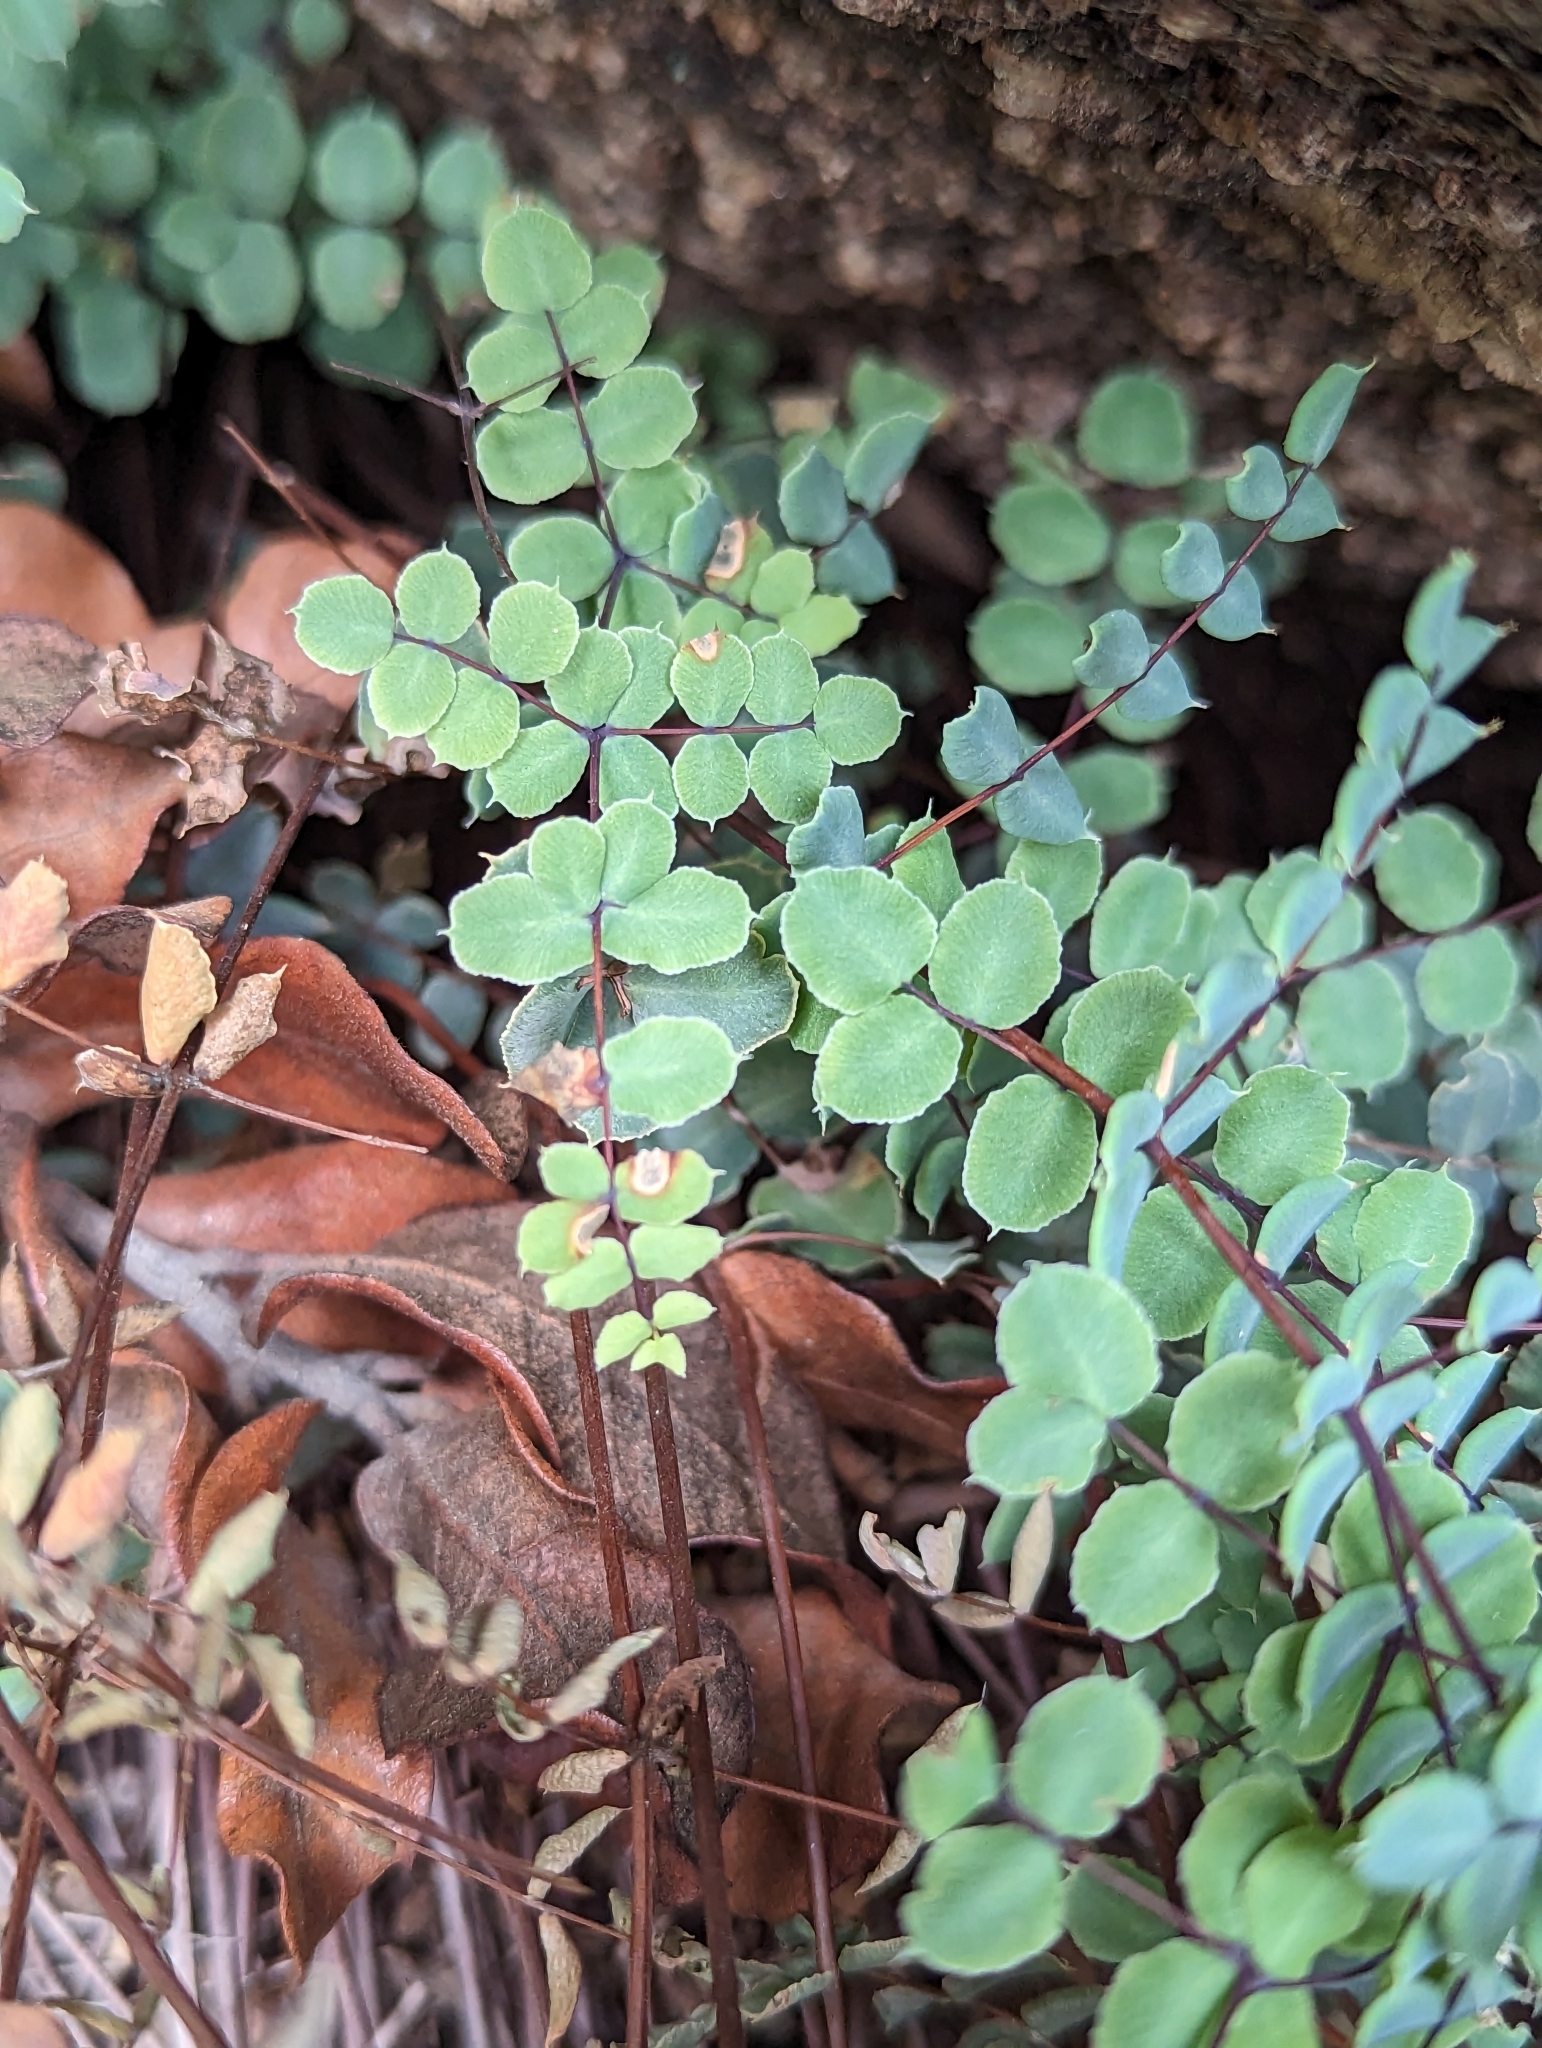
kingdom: Plantae
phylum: Tracheophyta
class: Polypodiopsida
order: Polypodiales
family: Pteridaceae
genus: Pellaea
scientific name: Pellaea truncata
